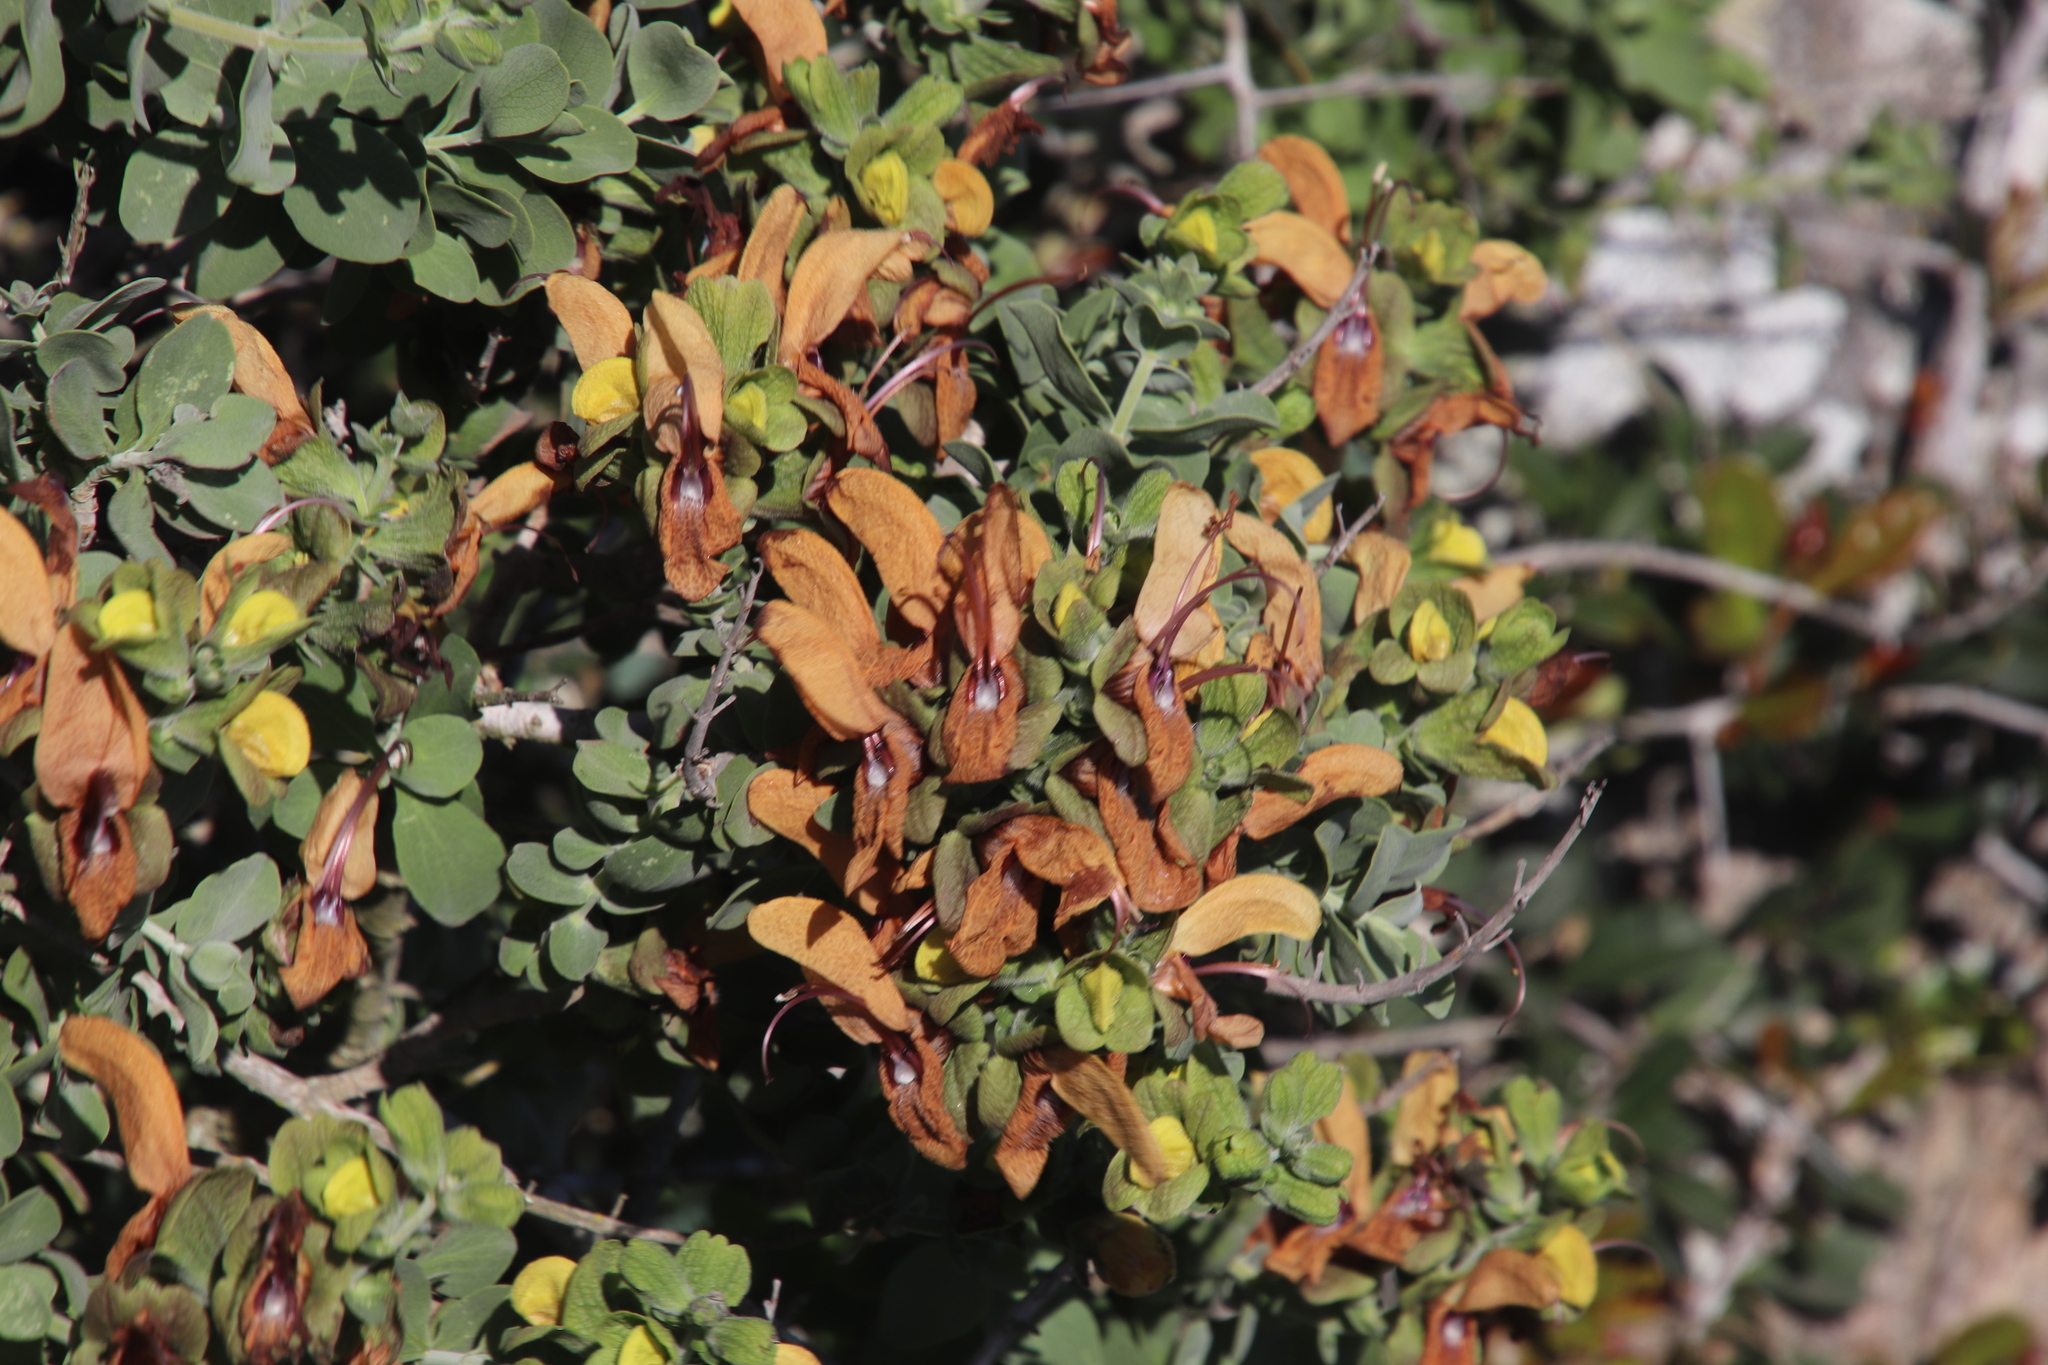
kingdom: Plantae
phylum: Tracheophyta
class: Magnoliopsida
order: Lamiales
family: Lamiaceae
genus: Salvia
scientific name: Salvia aurea
